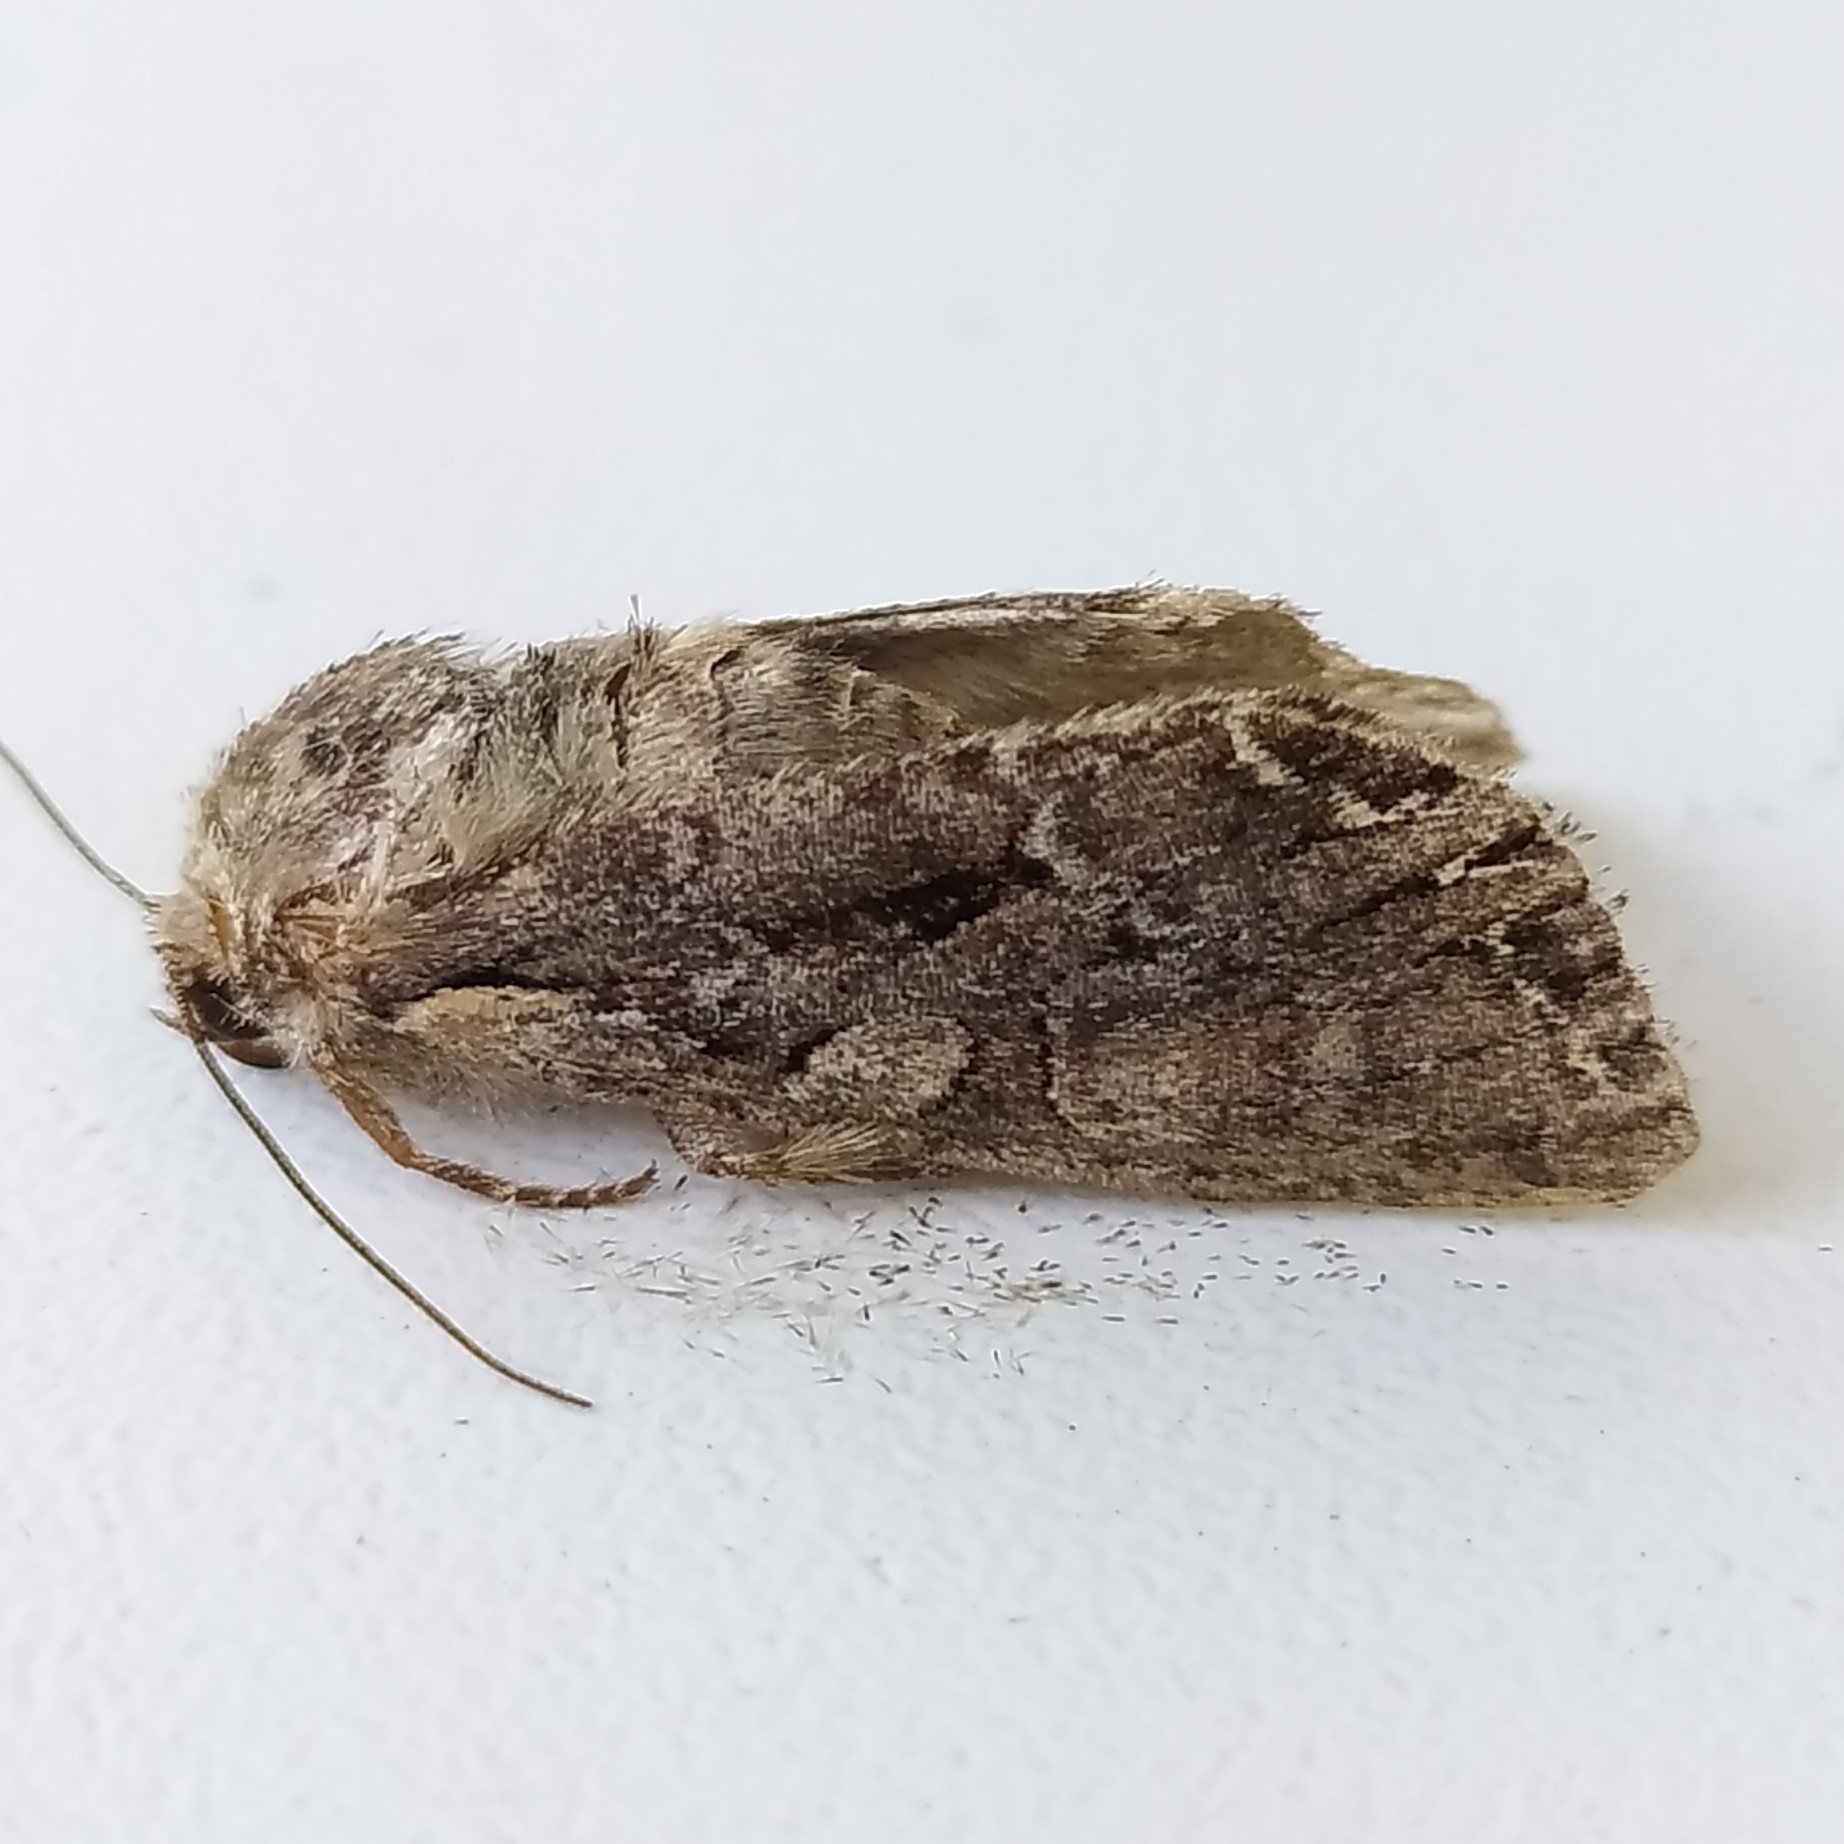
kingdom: Animalia
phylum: Arthropoda
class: Insecta
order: Lepidoptera
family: Noctuidae
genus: Lacanobia
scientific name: Lacanobia thalassina
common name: Pale-shouldered brocade
